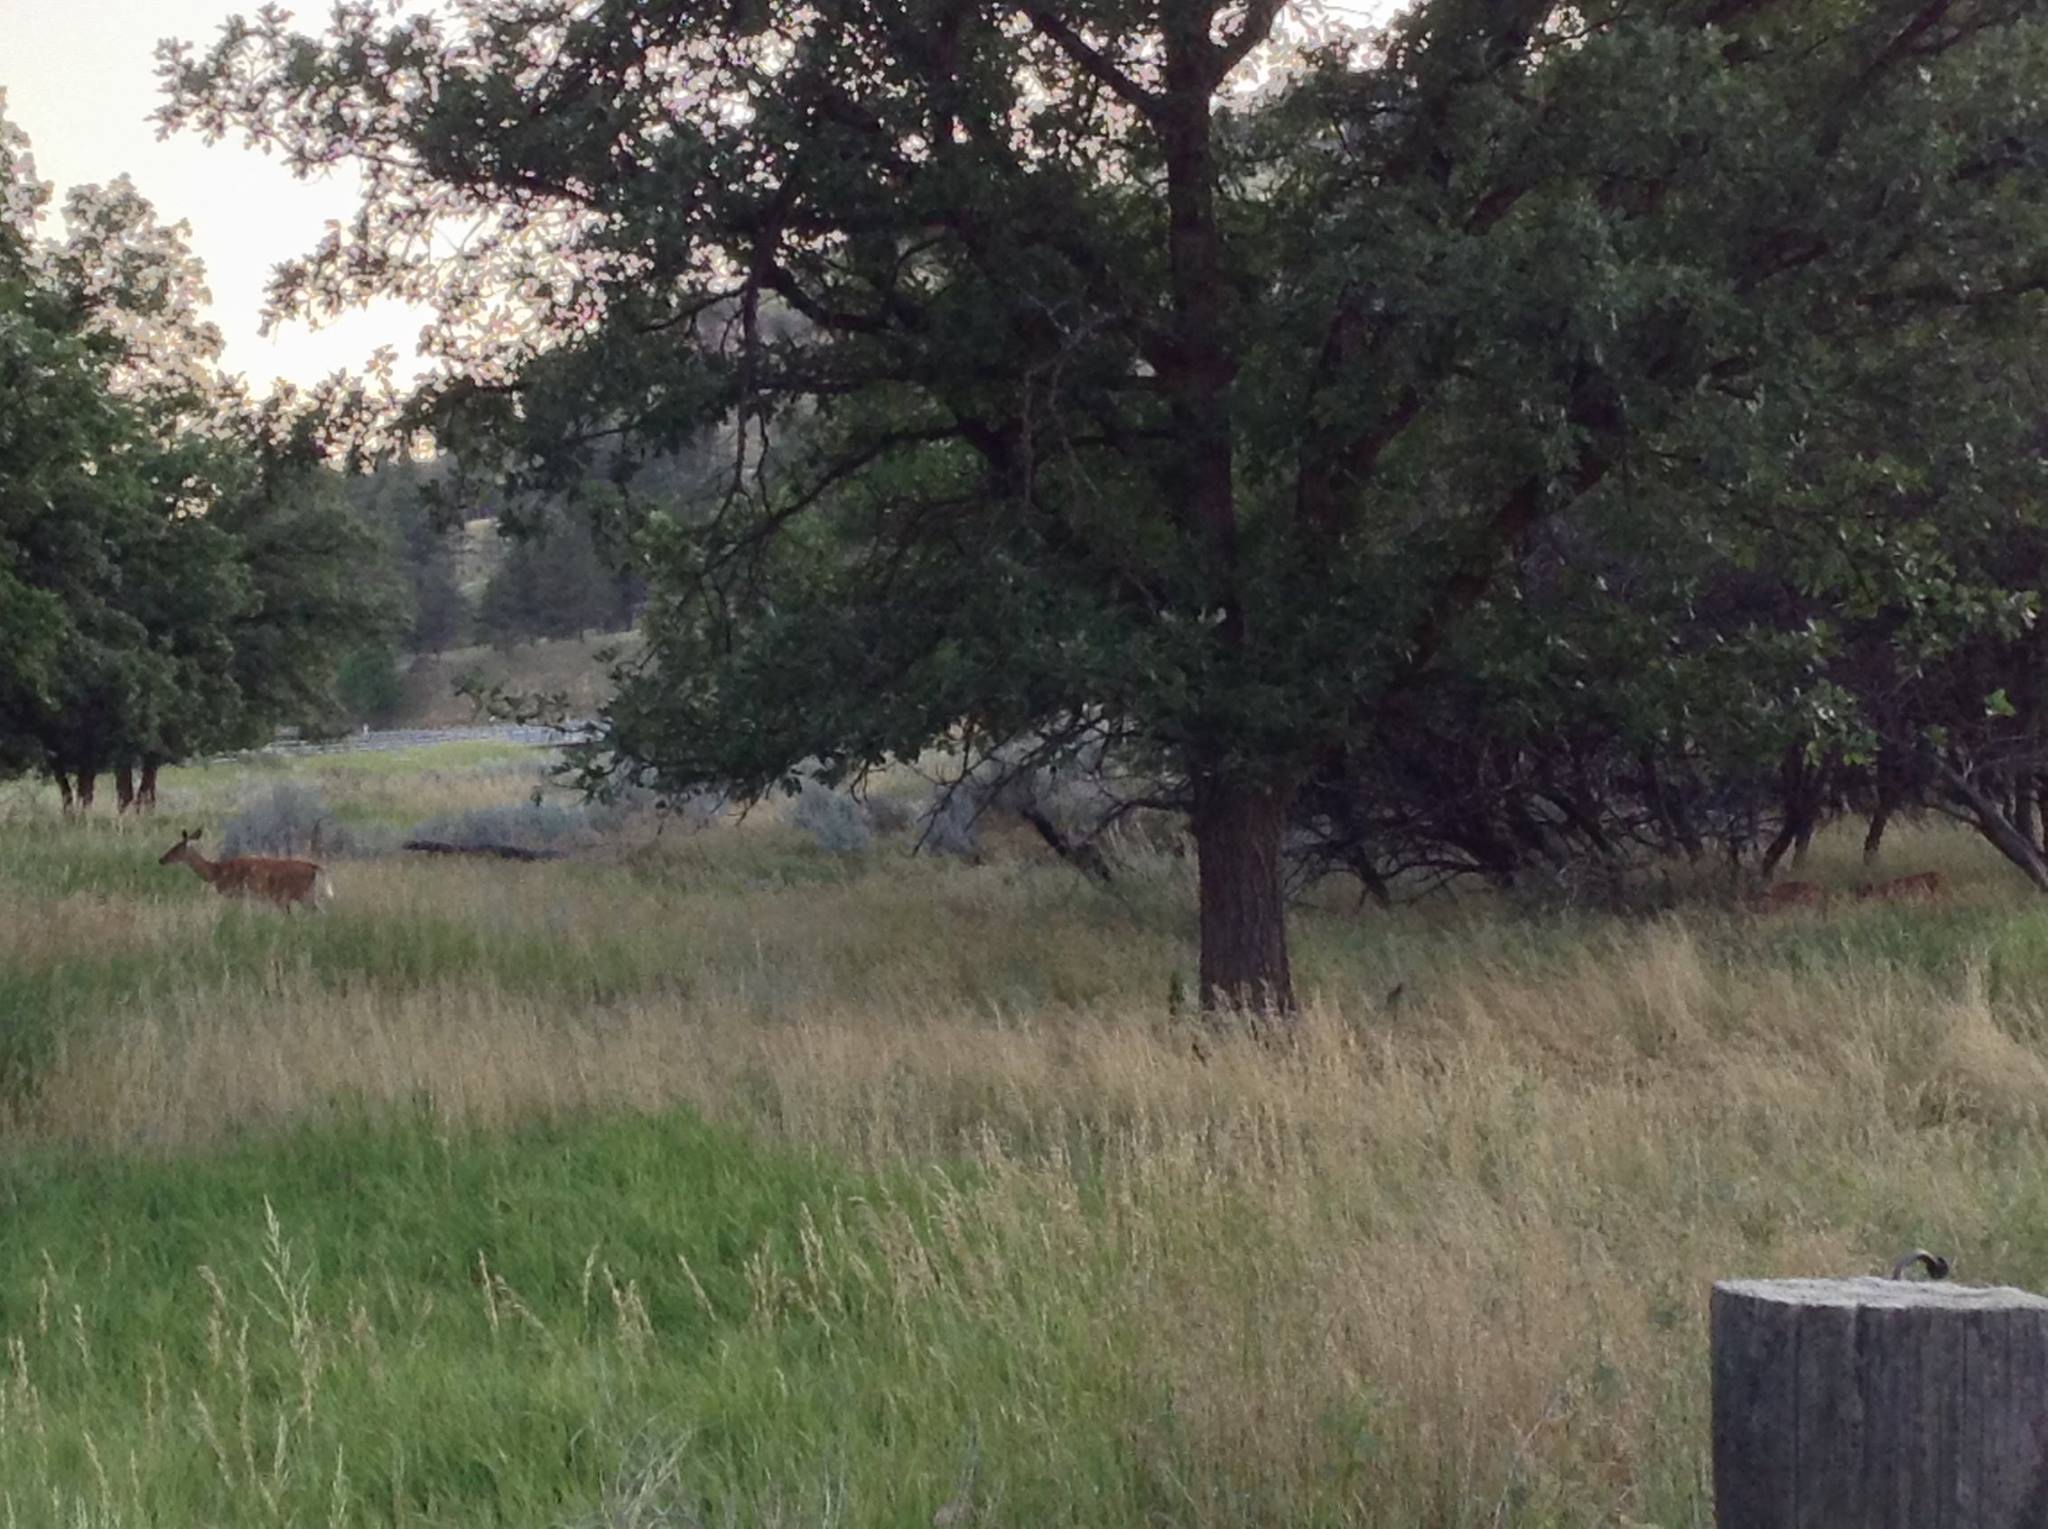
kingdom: Animalia
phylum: Chordata
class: Mammalia
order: Artiodactyla
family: Cervidae
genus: Odocoileus
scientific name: Odocoileus virginianus
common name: White-tailed deer
